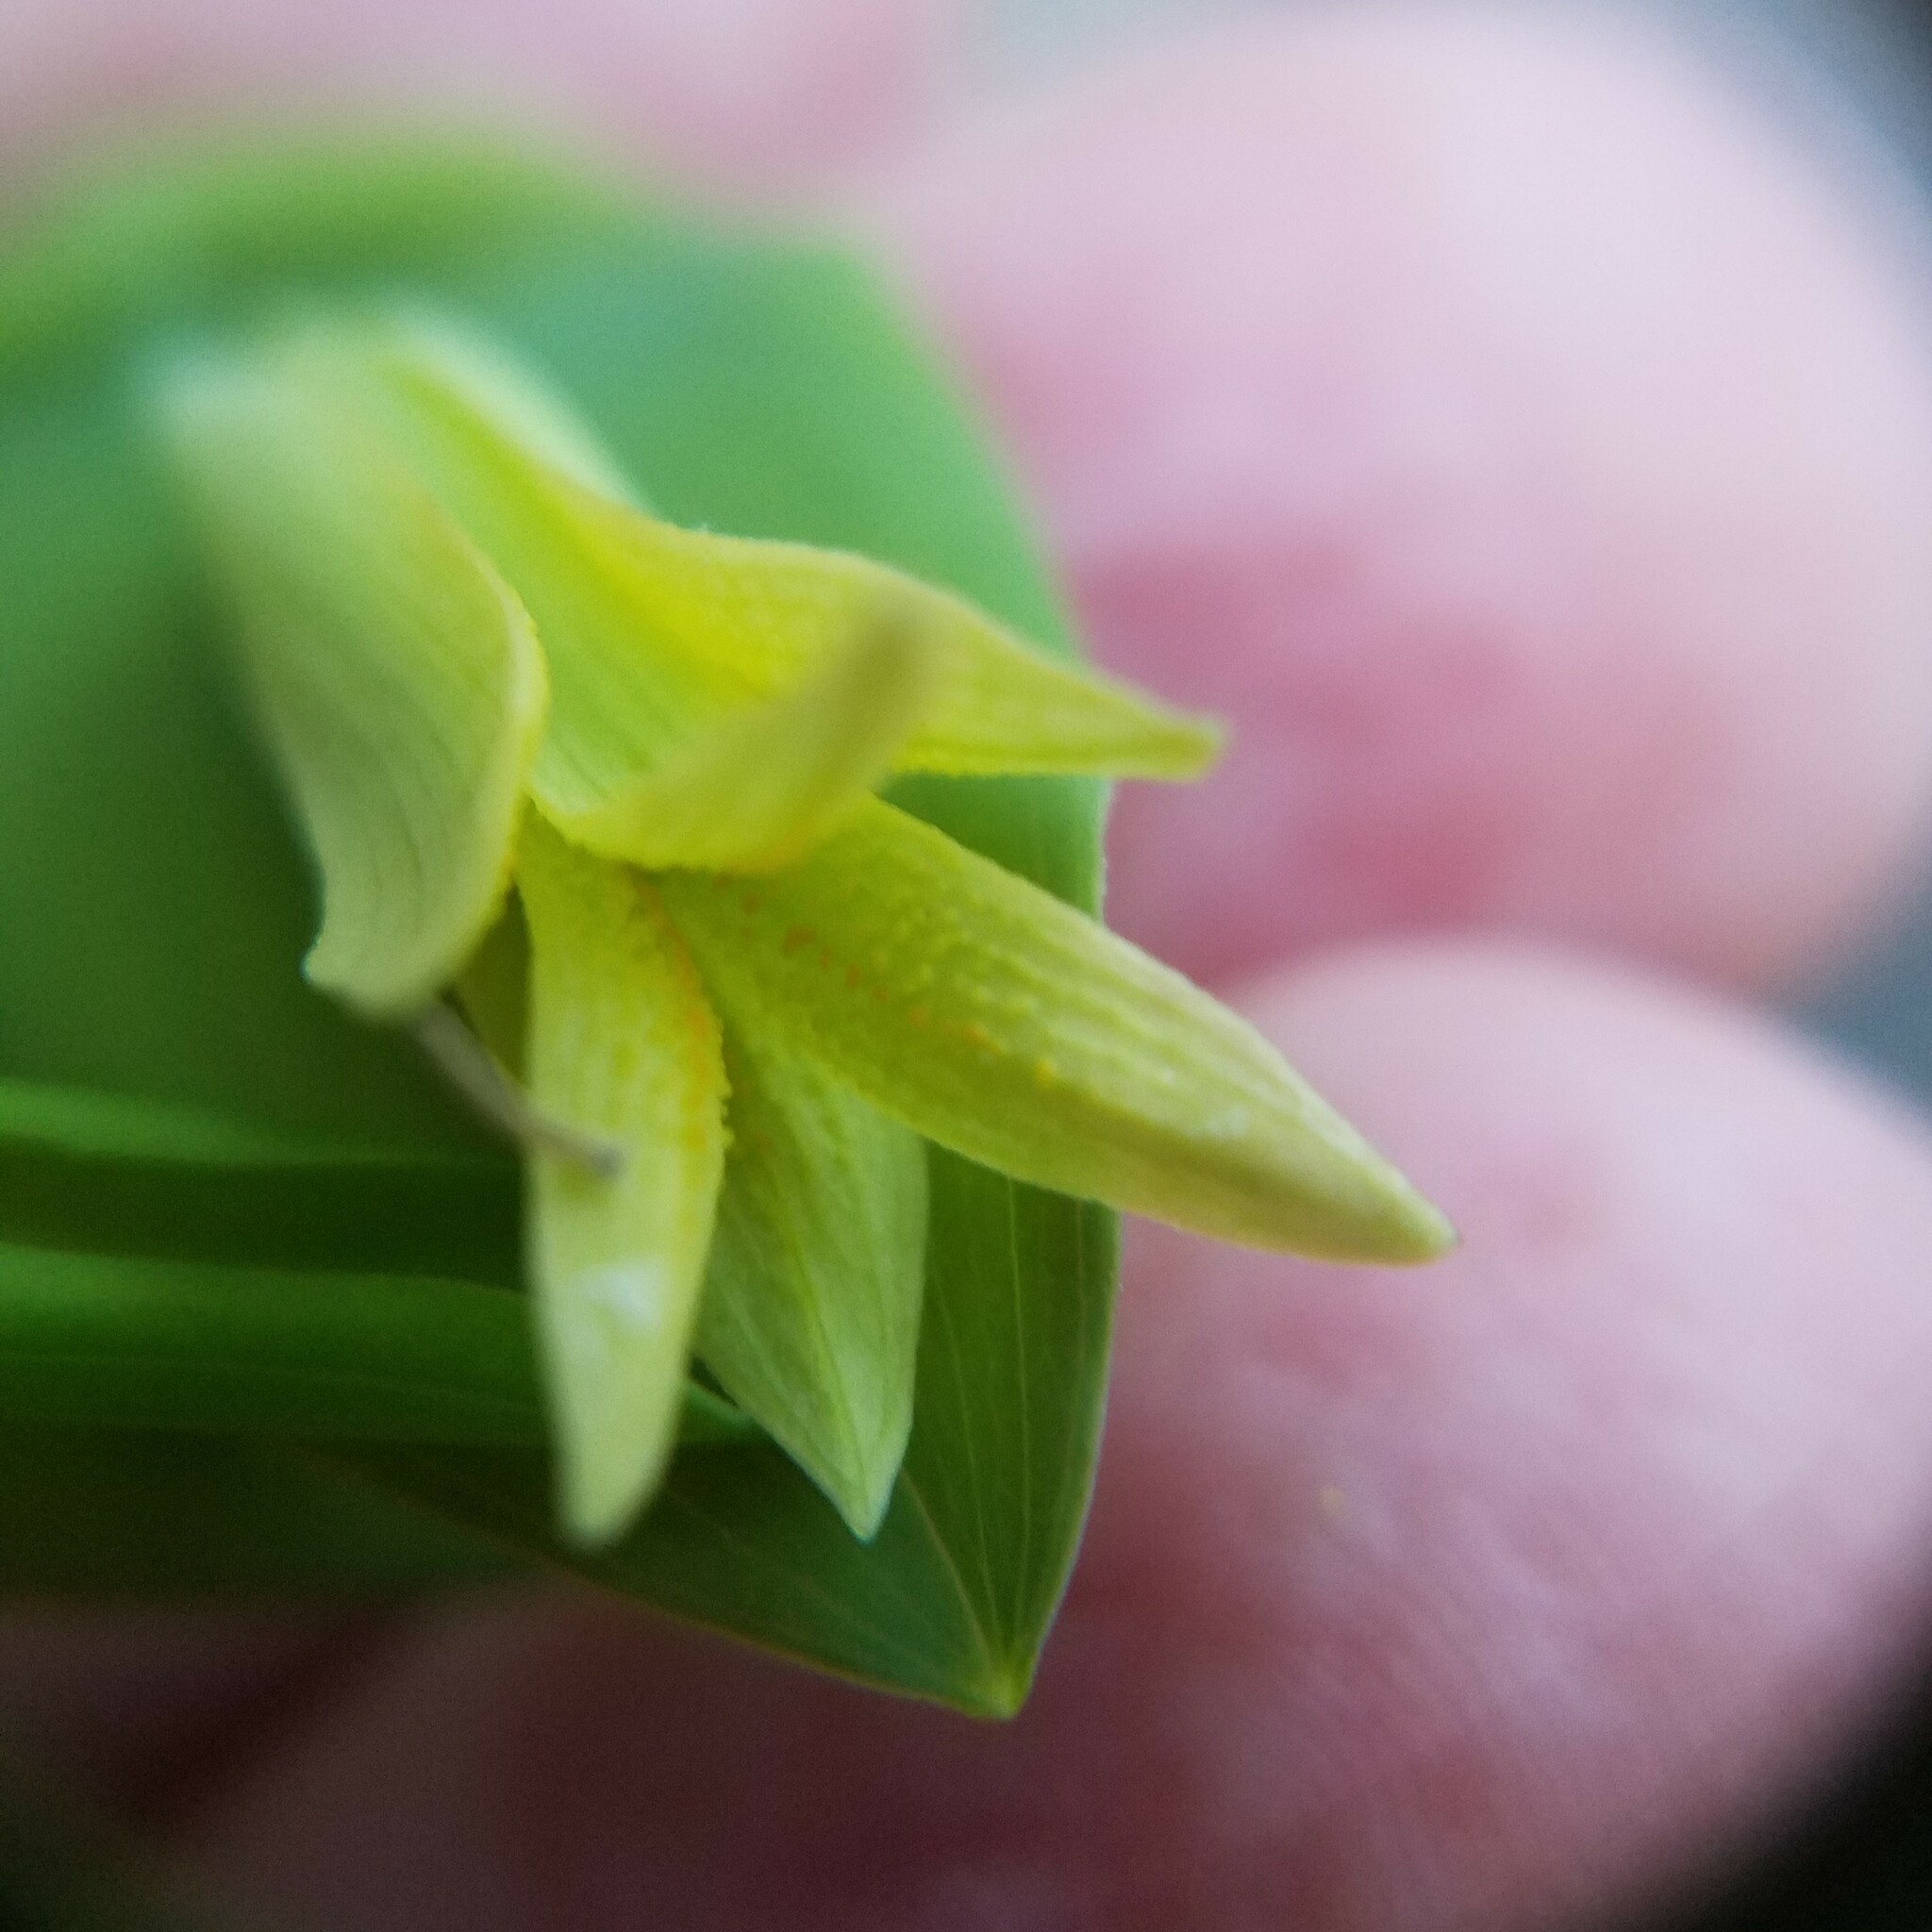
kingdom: Plantae
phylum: Tracheophyta
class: Liliopsida
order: Liliales
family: Colchicaceae
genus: Uvularia
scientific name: Uvularia perfoliata
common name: Perfoliate bellwort
